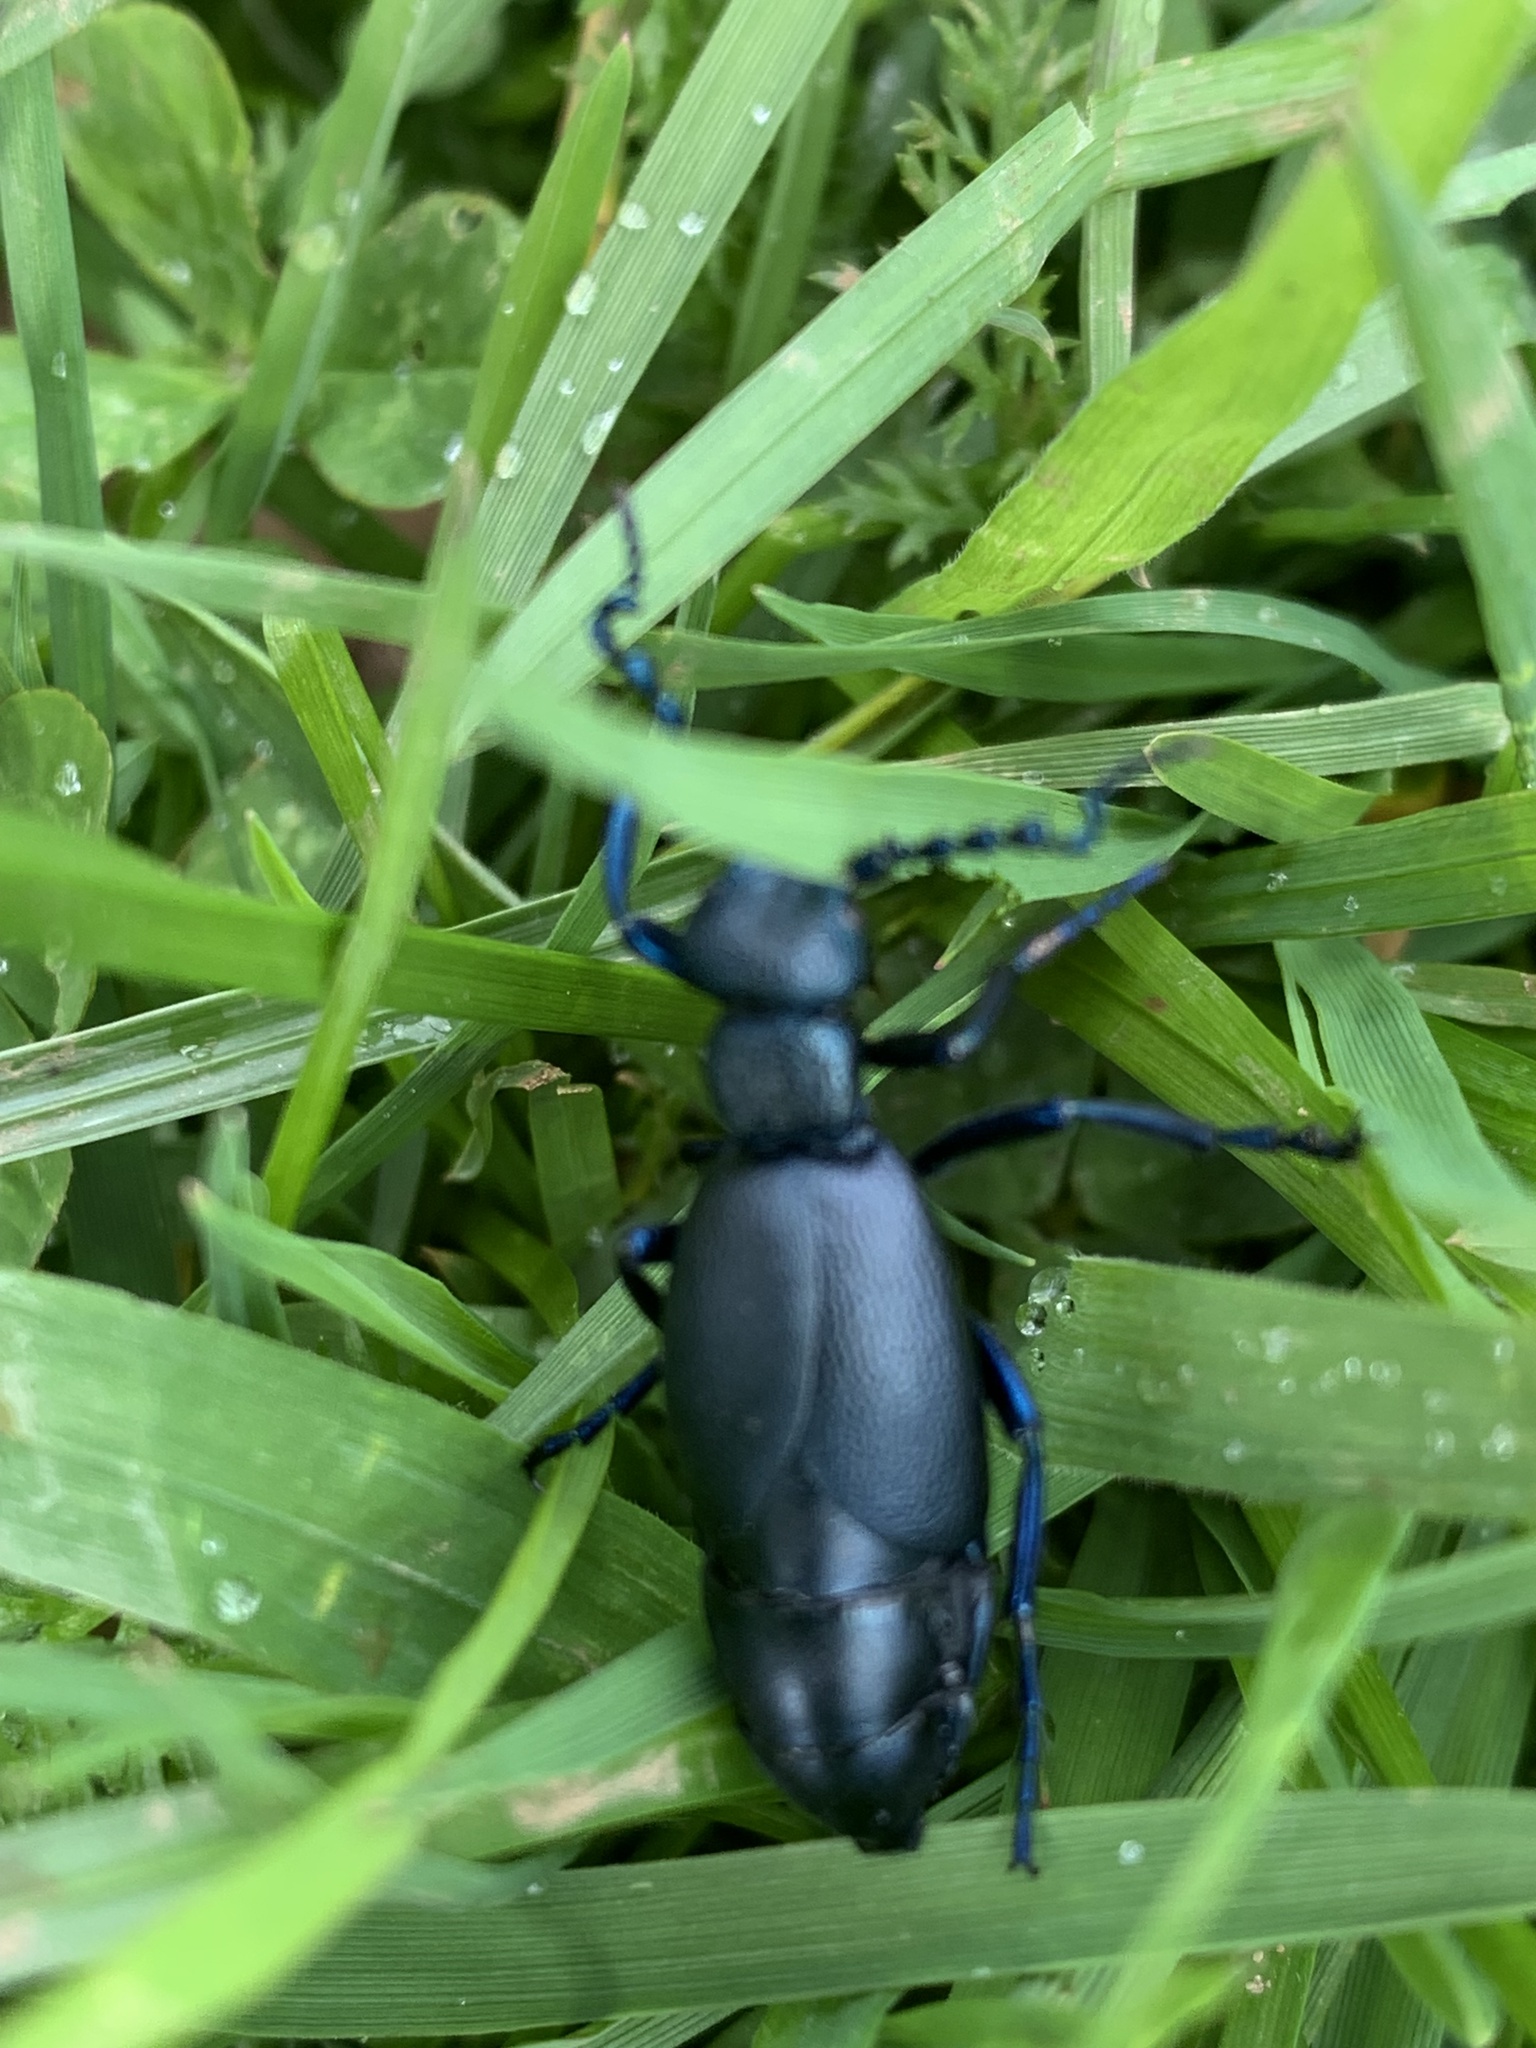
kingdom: Animalia
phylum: Arthropoda
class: Insecta
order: Coleoptera
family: Meloidae
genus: Meloe
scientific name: Meloe proscarabaeus
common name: Black oil-beetle
